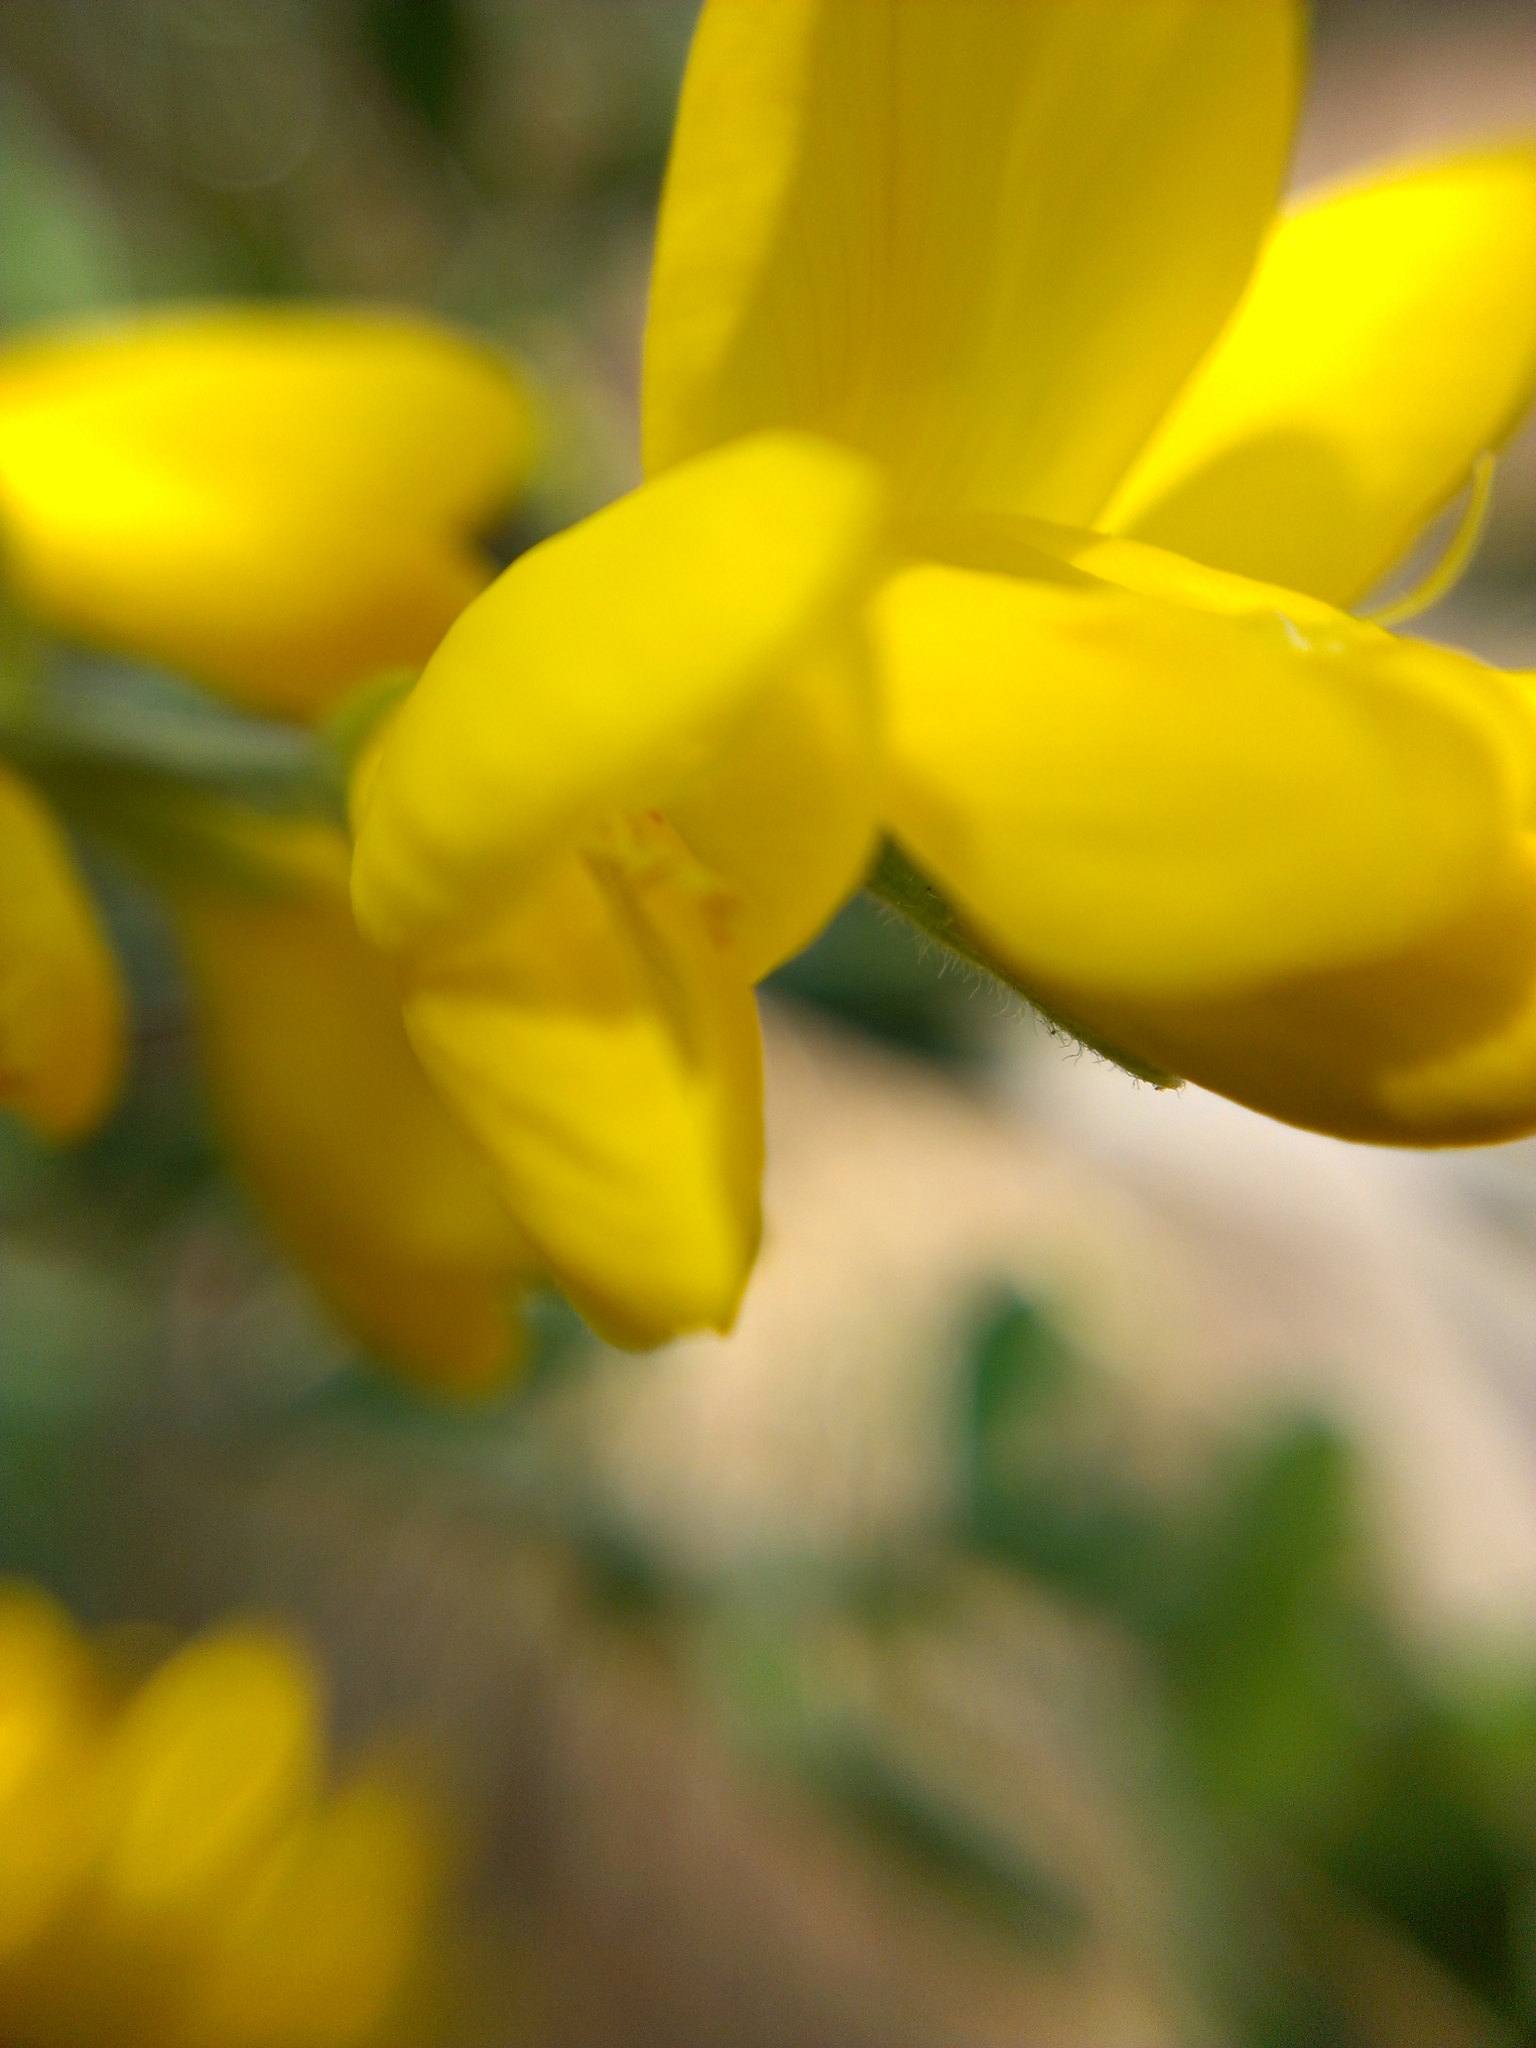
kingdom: Plantae
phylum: Tracheophyta
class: Magnoliopsida
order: Fabales
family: Fabaceae
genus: Genista
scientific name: Genista monspessulana
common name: Montpellier broom
